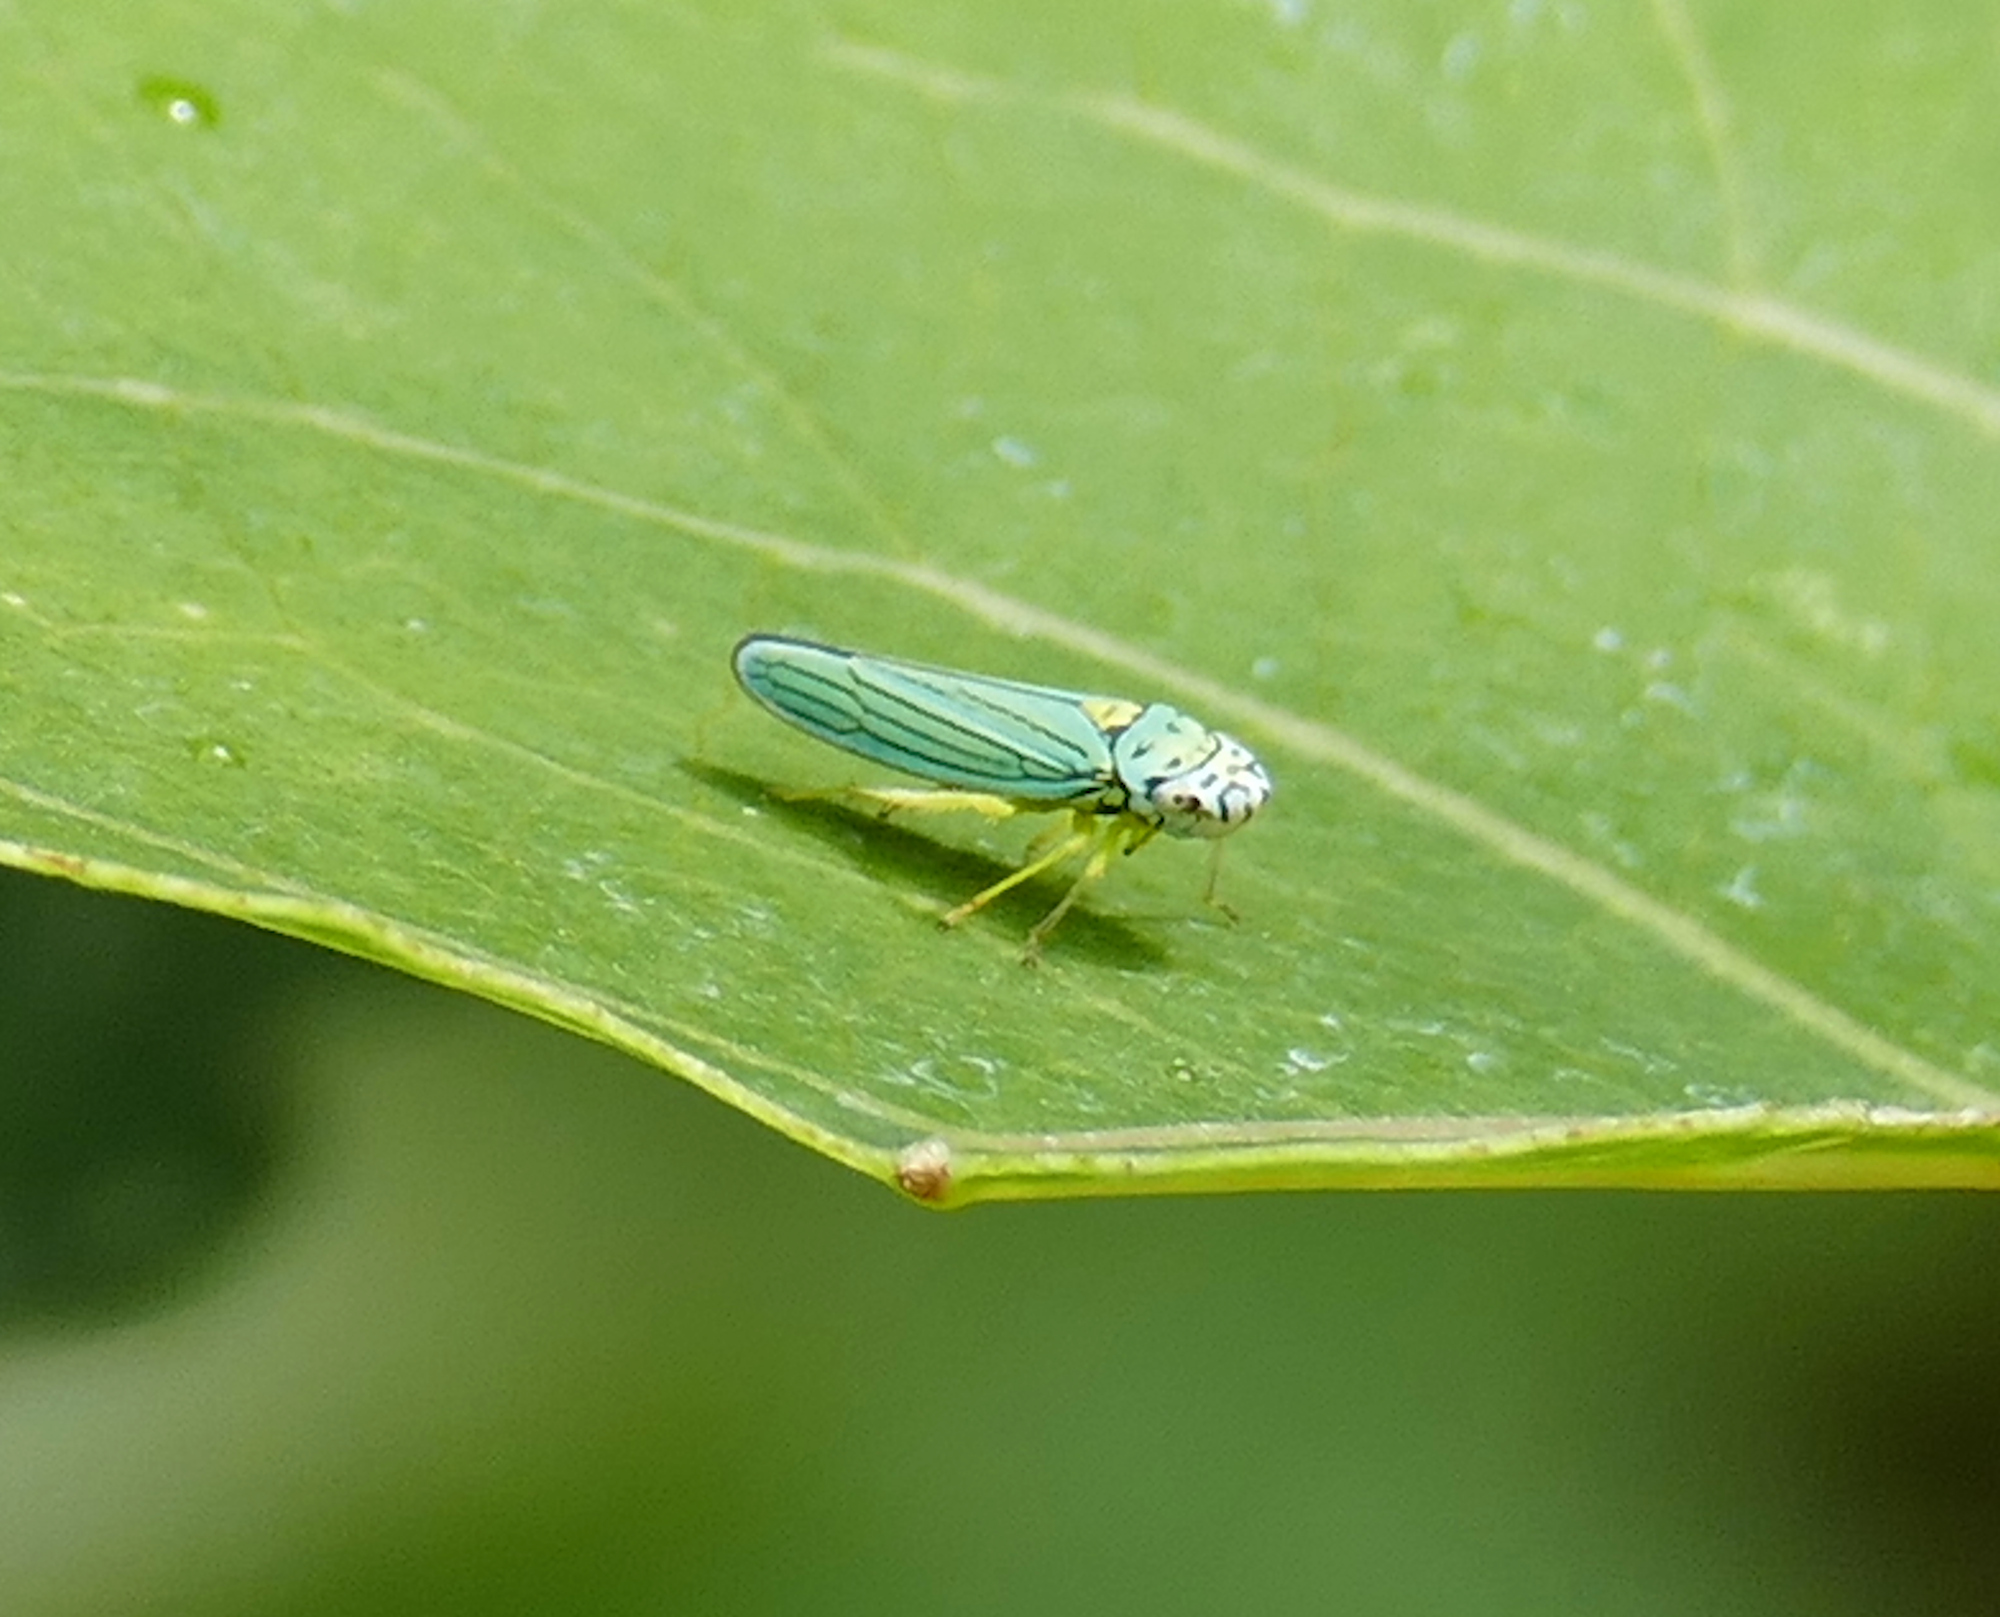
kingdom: Animalia
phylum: Arthropoda
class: Insecta
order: Hemiptera
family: Cicadellidae
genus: Graphocephala
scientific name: Graphocephala atropunctata
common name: Blue-green sharpshooter
